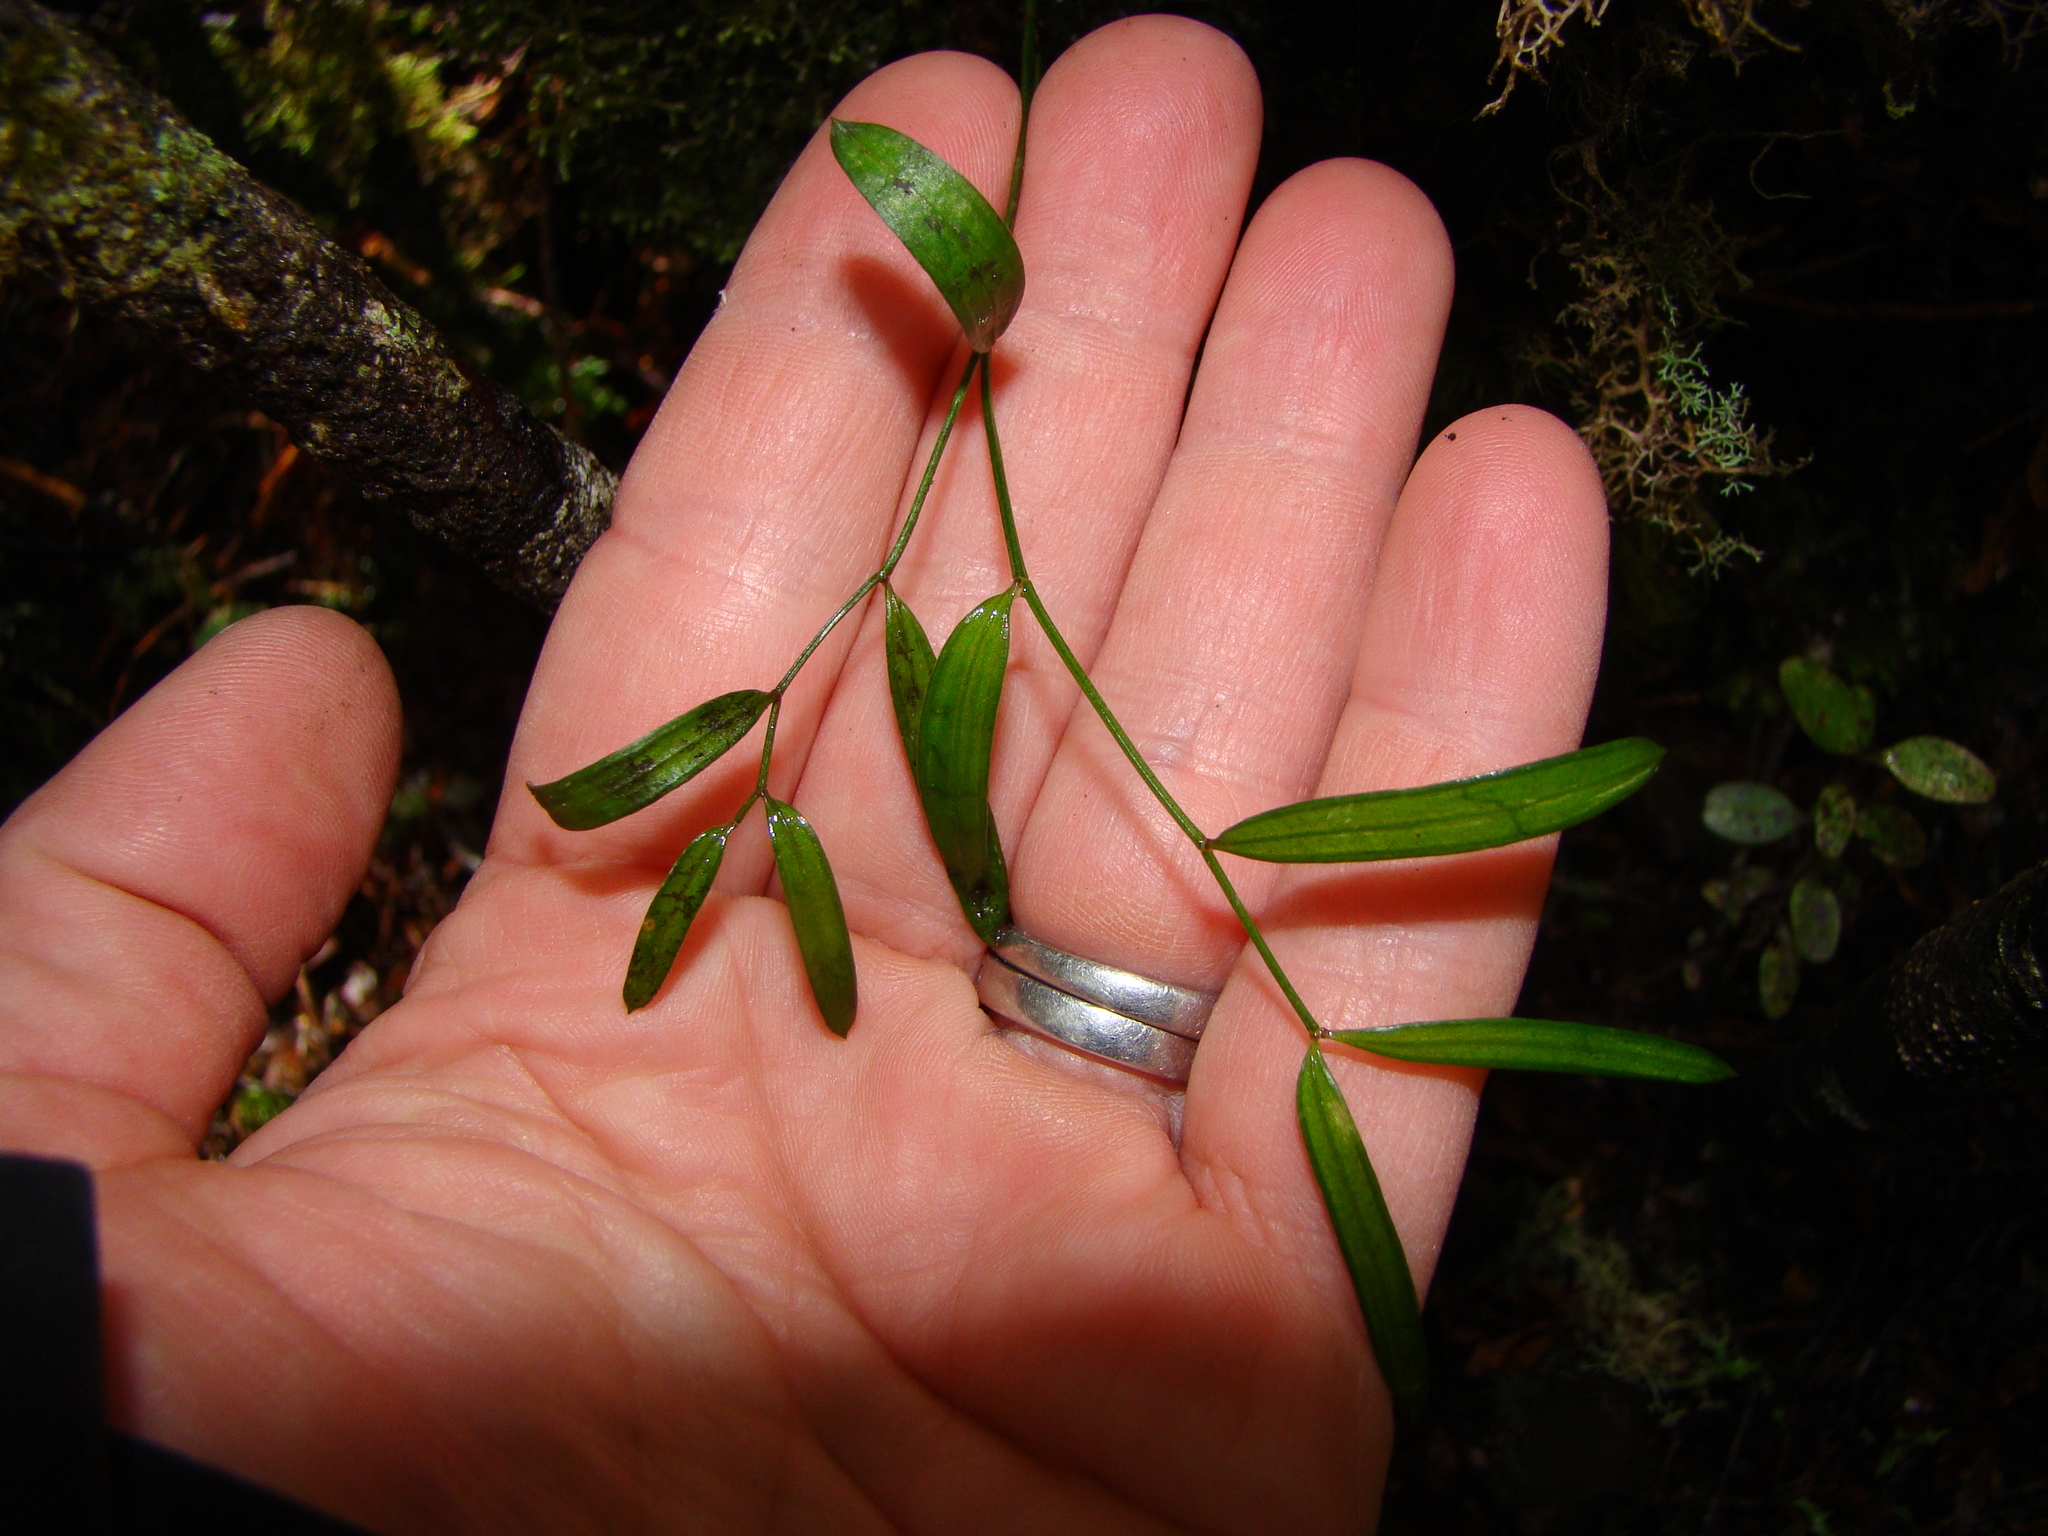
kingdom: Plantae
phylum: Tracheophyta
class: Liliopsida
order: Liliales
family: Alstroemeriaceae
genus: Luzuriaga
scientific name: Luzuriaga parviflora
